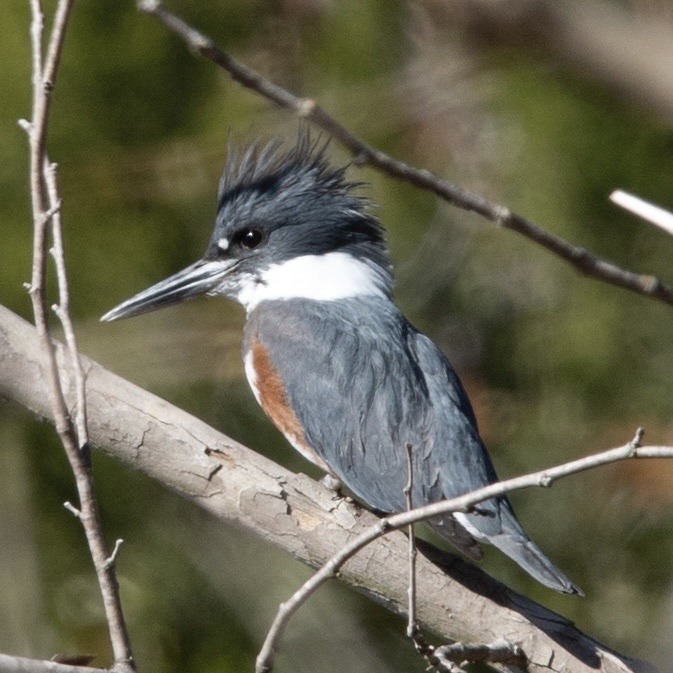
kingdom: Animalia
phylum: Chordata
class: Aves
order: Coraciiformes
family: Alcedinidae
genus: Megaceryle
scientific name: Megaceryle alcyon
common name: Belted kingfisher
